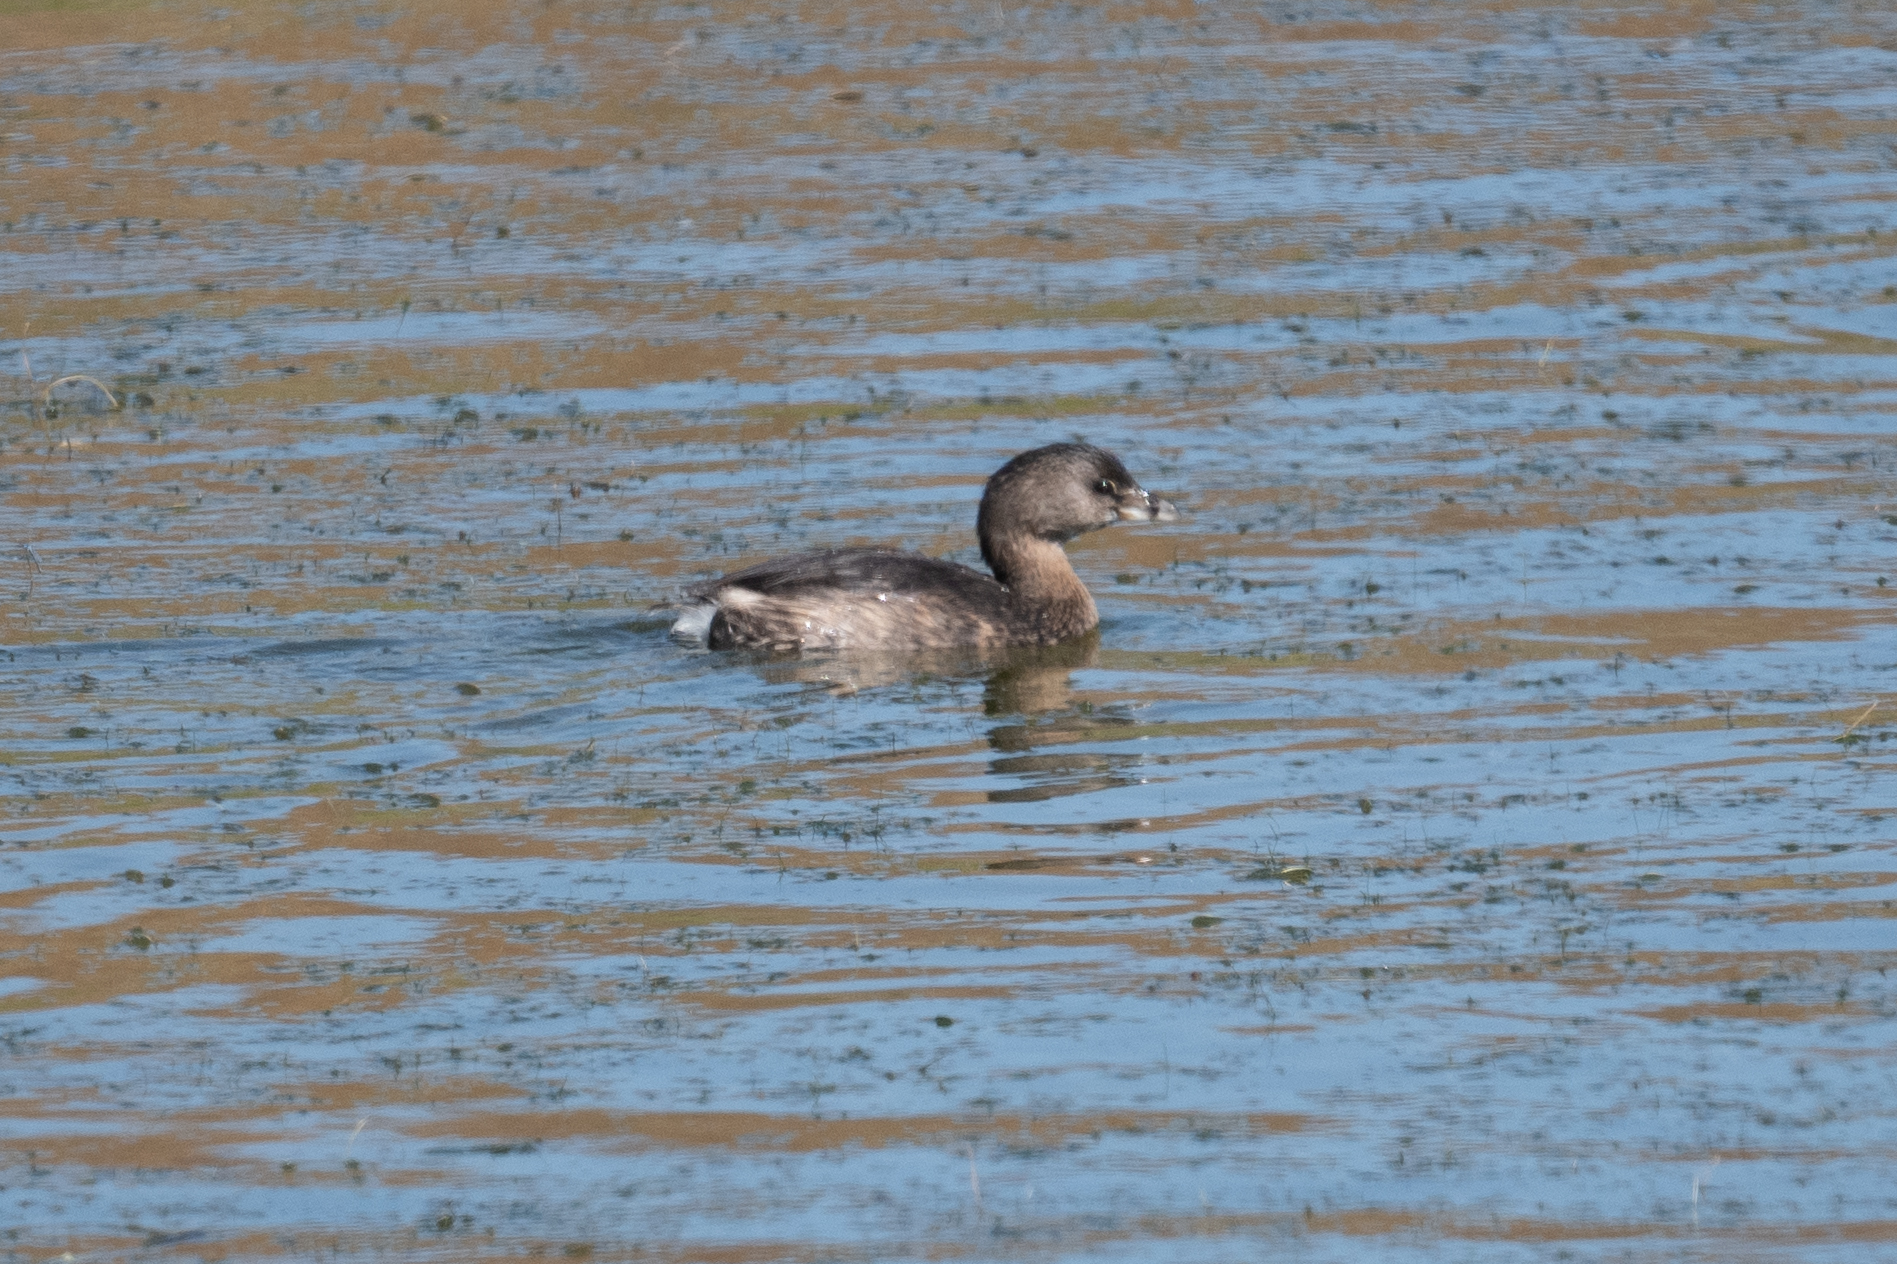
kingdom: Animalia
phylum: Chordata
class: Aves
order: Podicipediformes
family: Podicipedidae
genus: Podilymbus
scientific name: Podilymbus podiceps
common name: Pied-billed grebe
